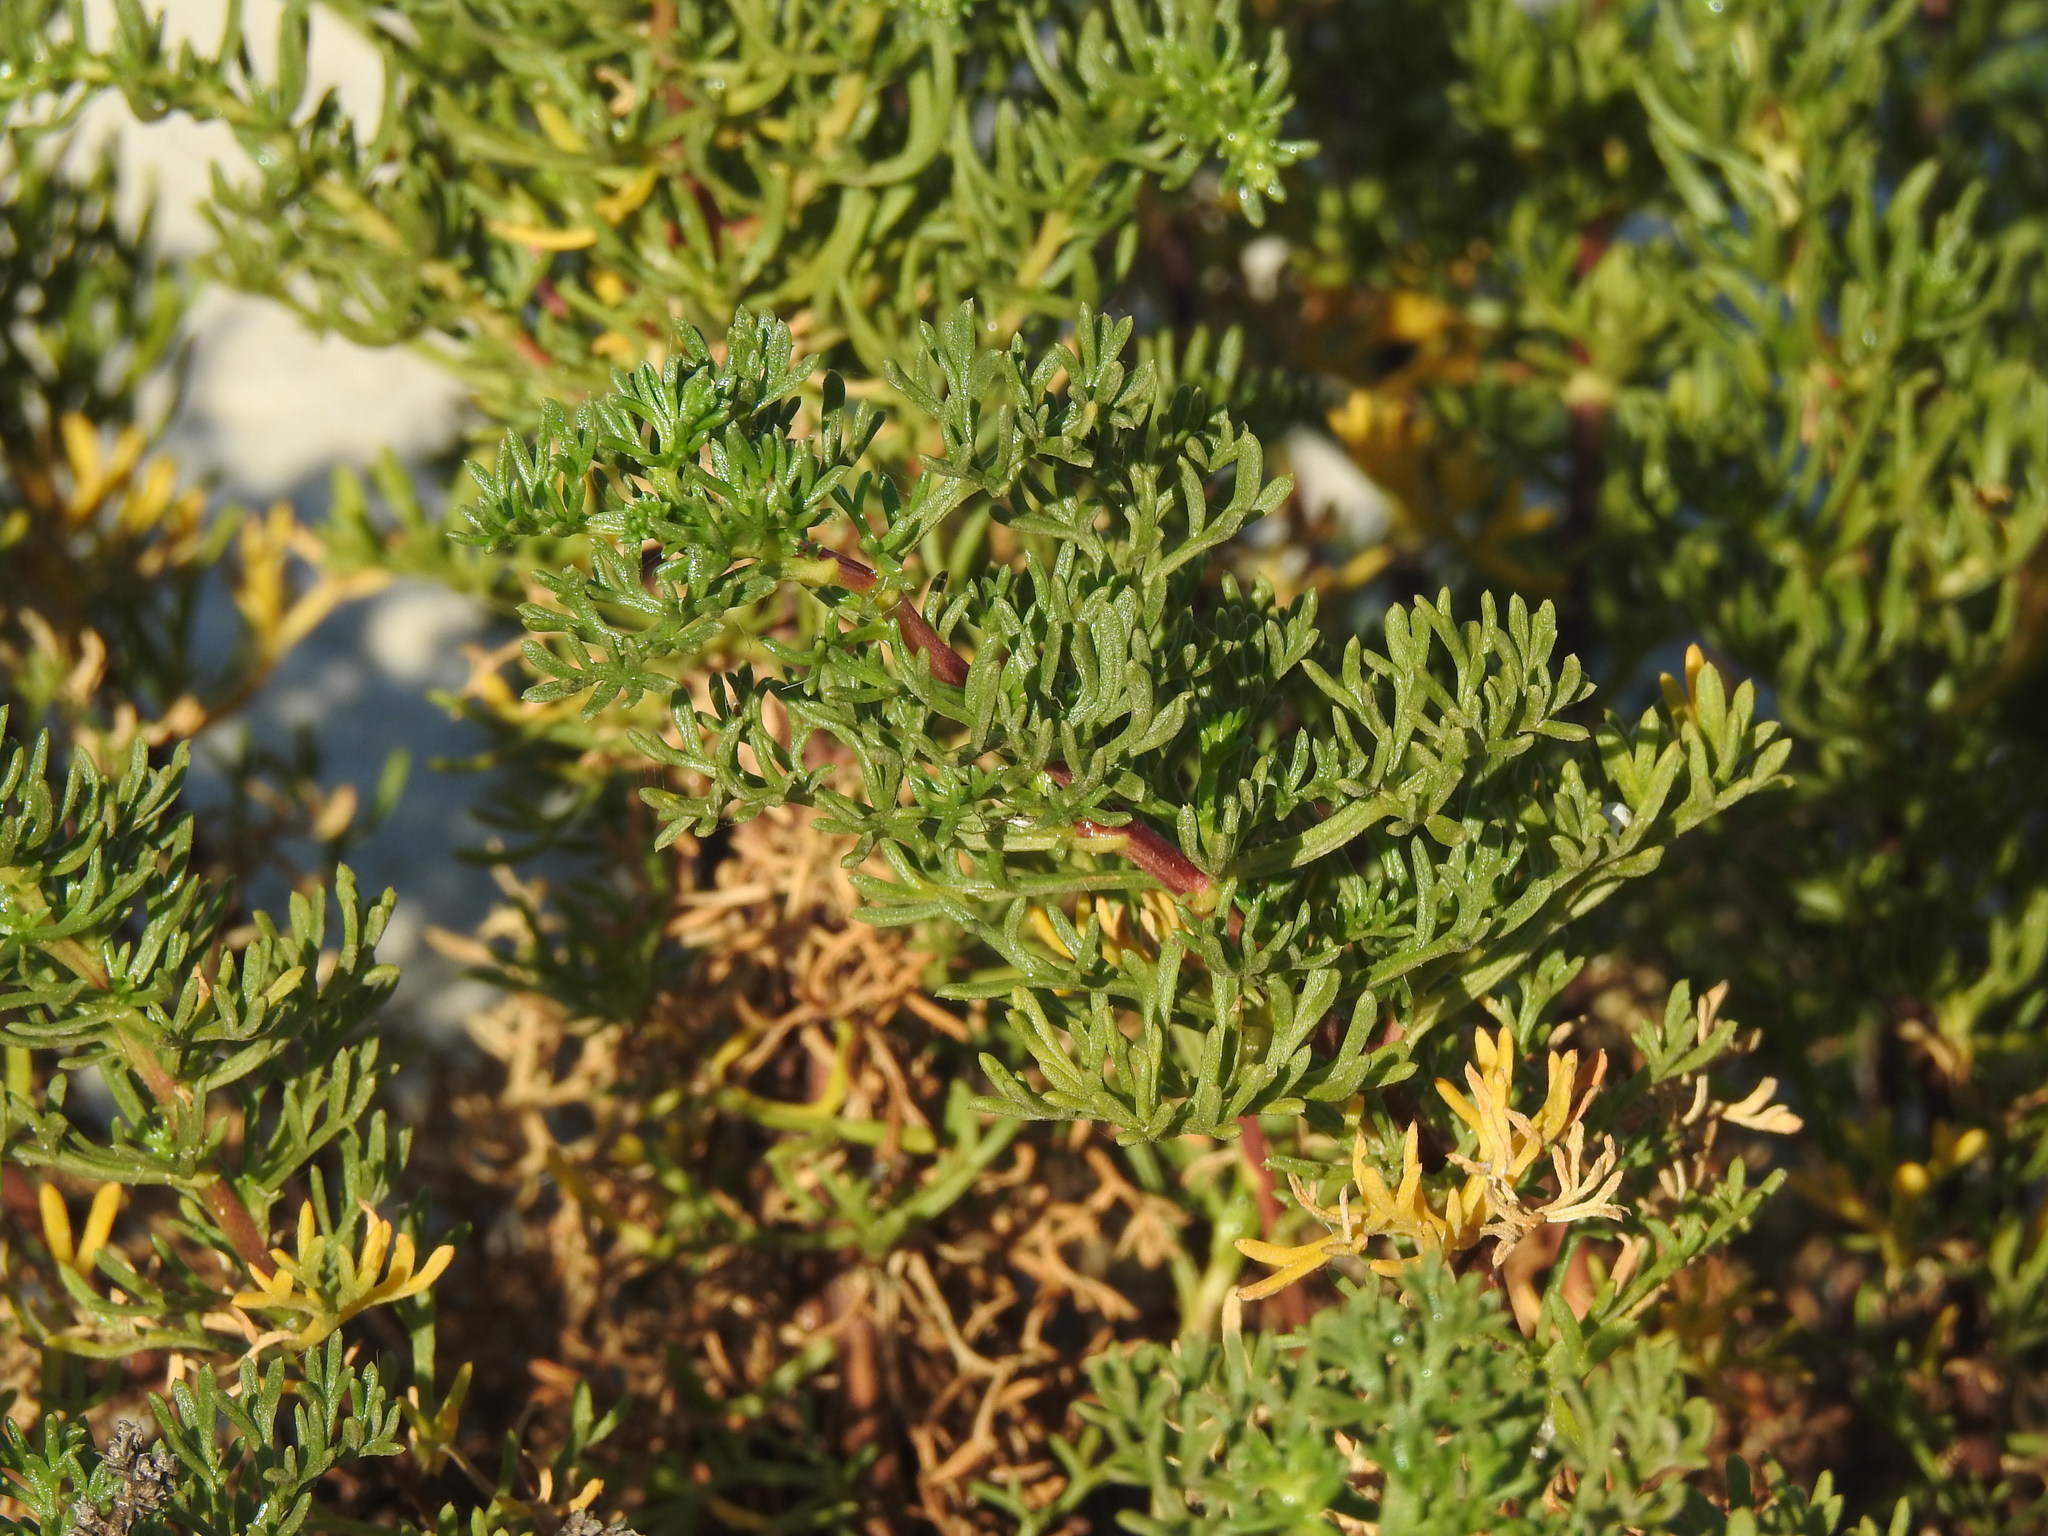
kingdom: Plantae
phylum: Tracheophyta
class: Magnoliopsida
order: Asterales
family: Asteraceae
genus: Artemisia
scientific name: Artemisia crithmifolia
